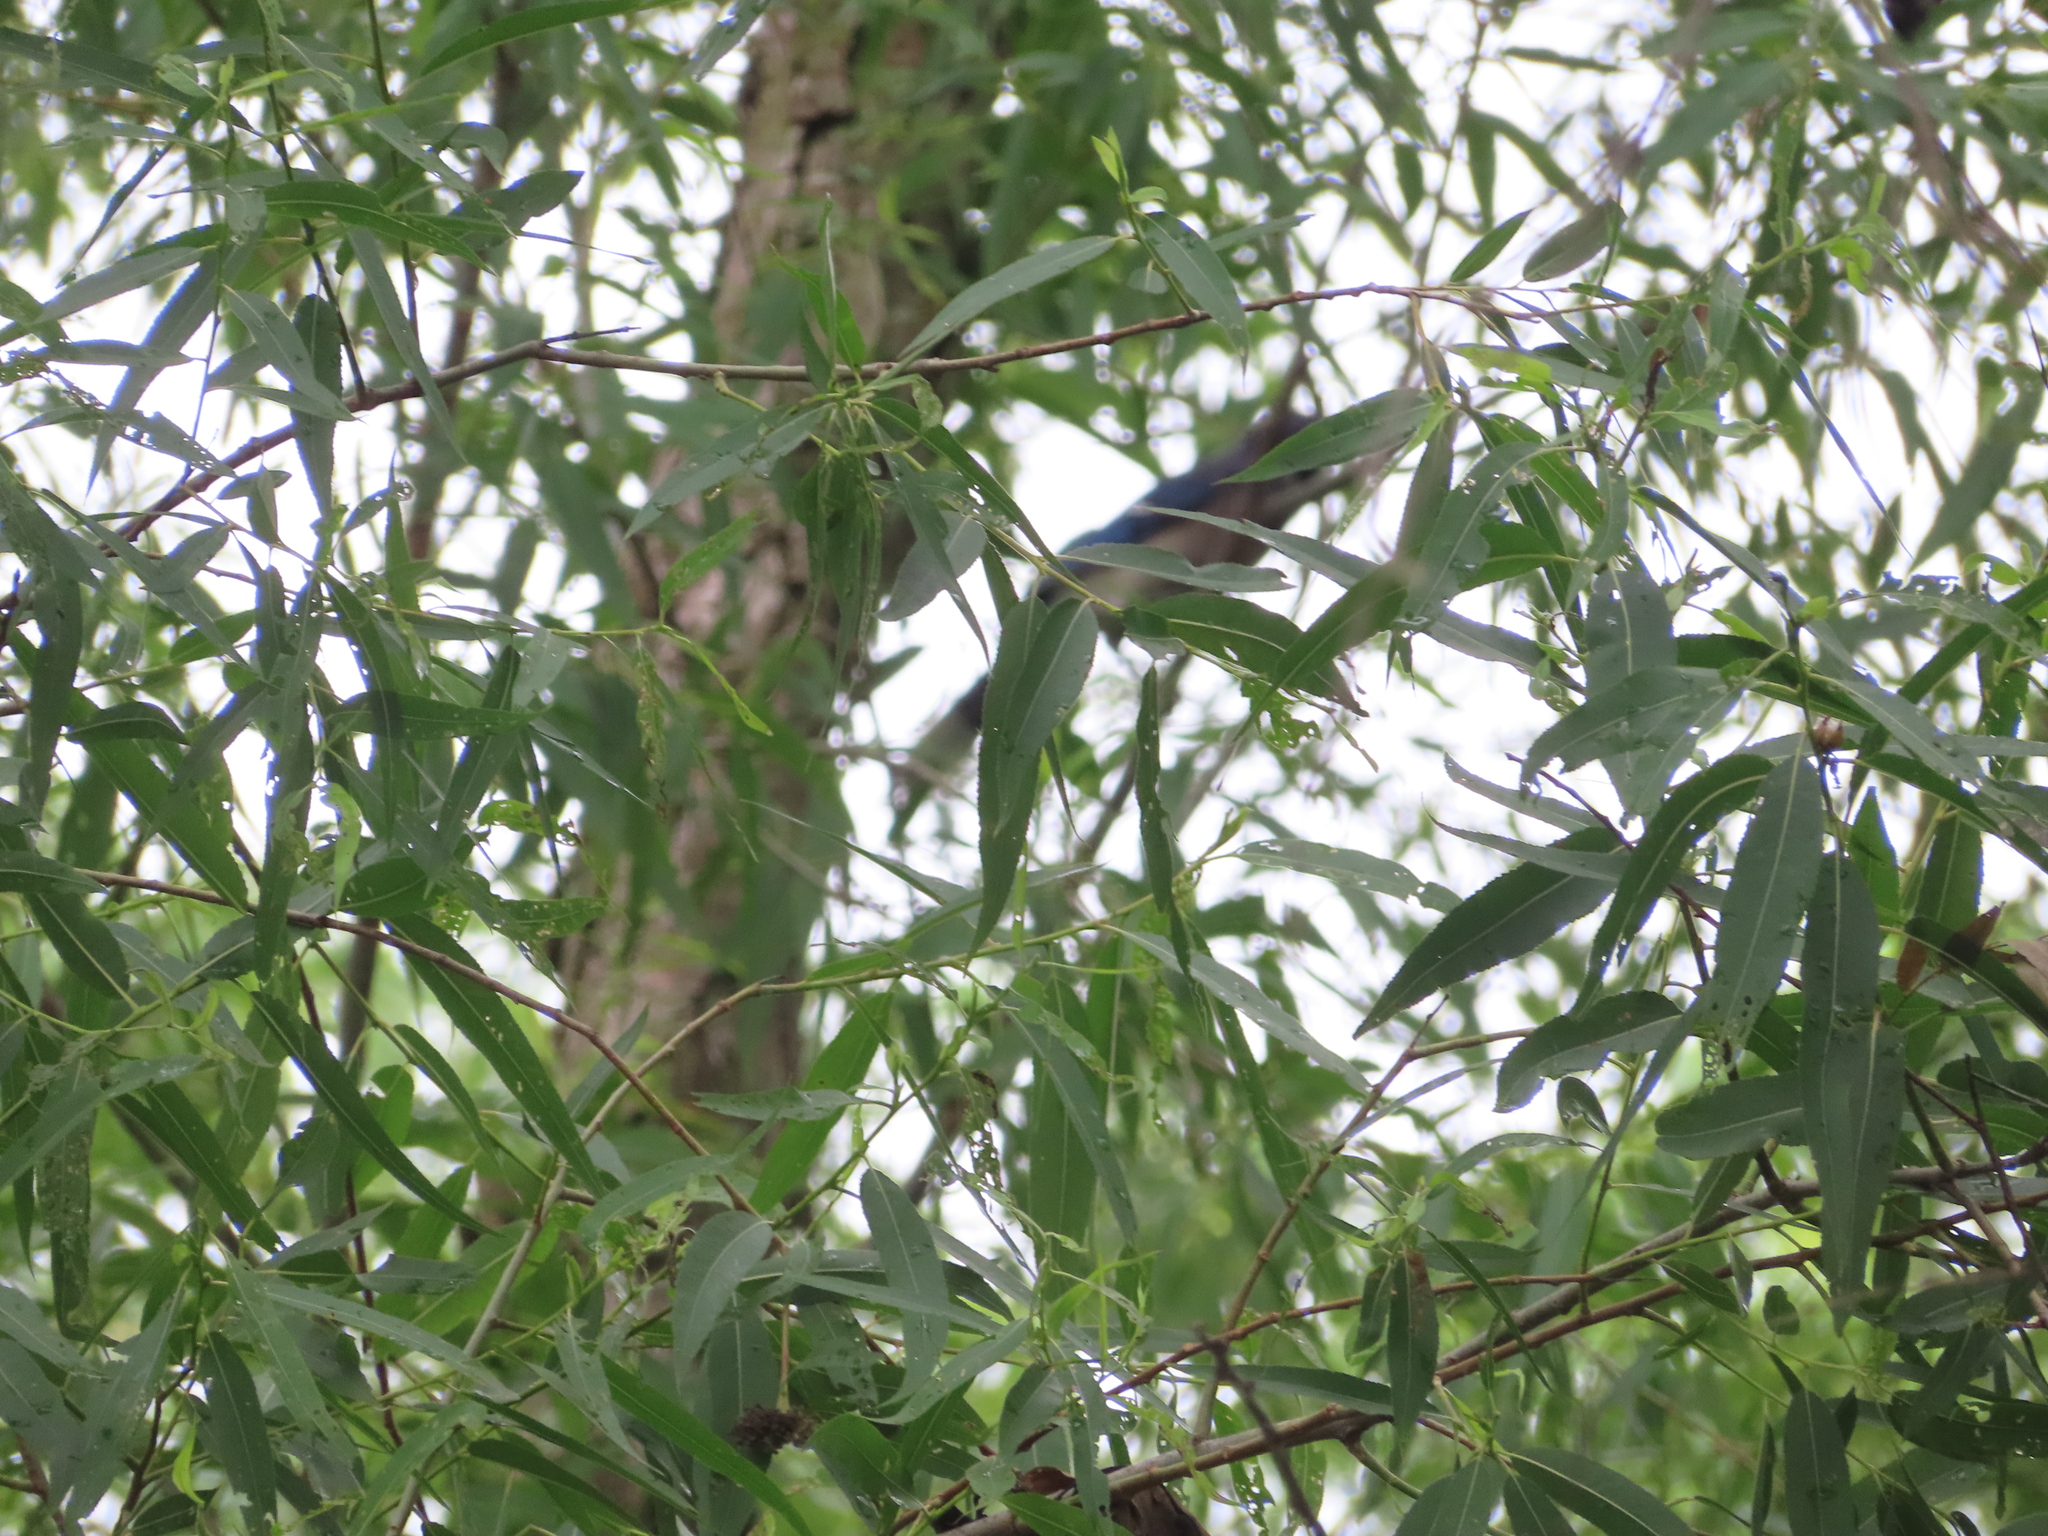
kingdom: Animalia
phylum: Chordata
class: Aves
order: Passeriformes
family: Corvidae
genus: Cyanocitta
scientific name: Cyanocitta cristata
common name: Blue jay
